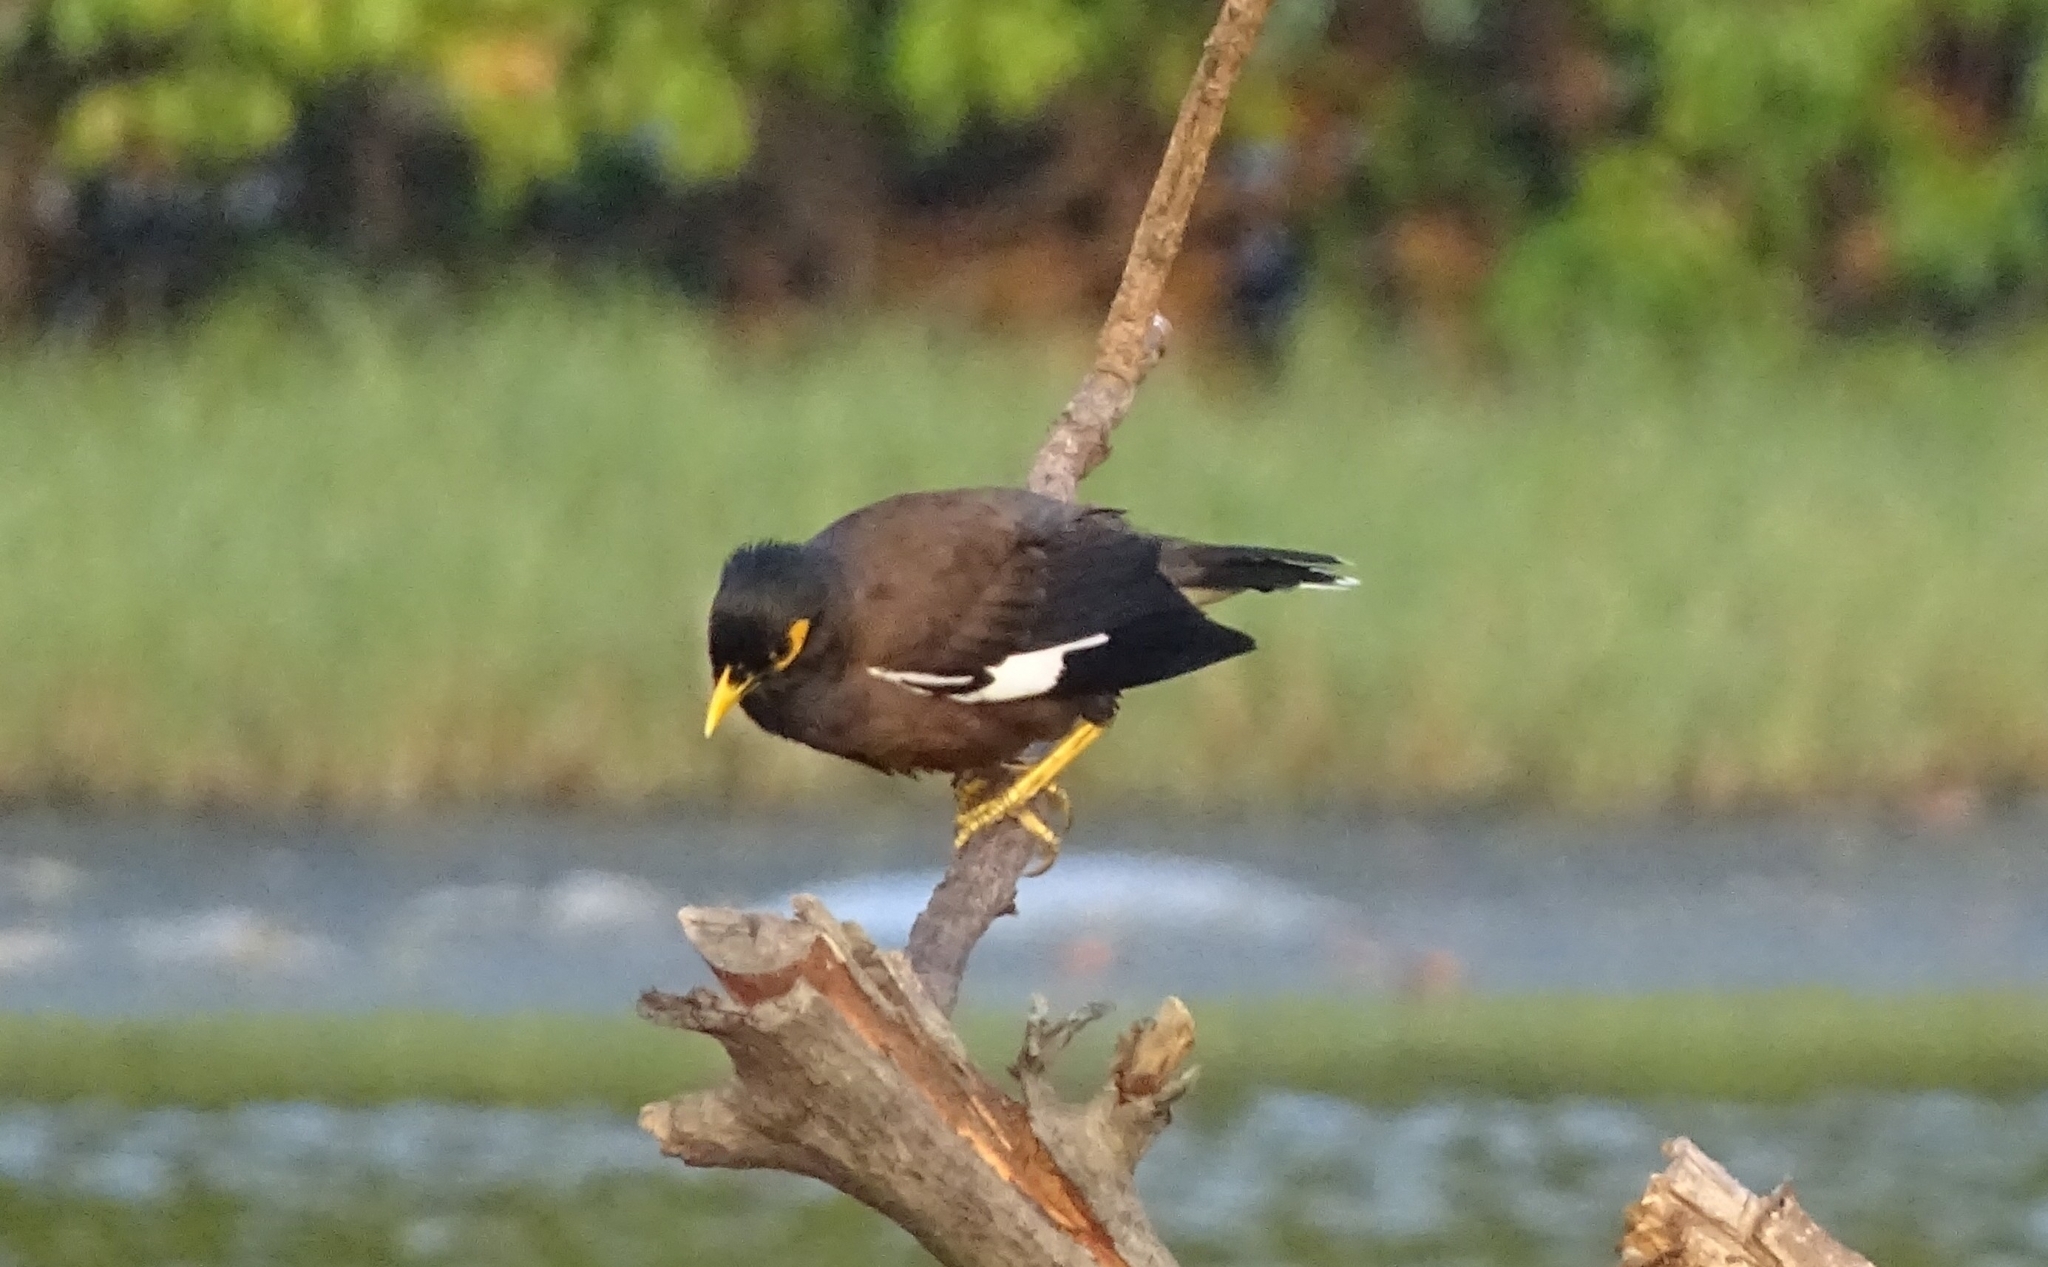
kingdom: Animalia
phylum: Chordata
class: Aves
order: Passeriformes
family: Sturnidae
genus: Acridotheres
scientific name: Acridotheres tristis
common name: Common myna
